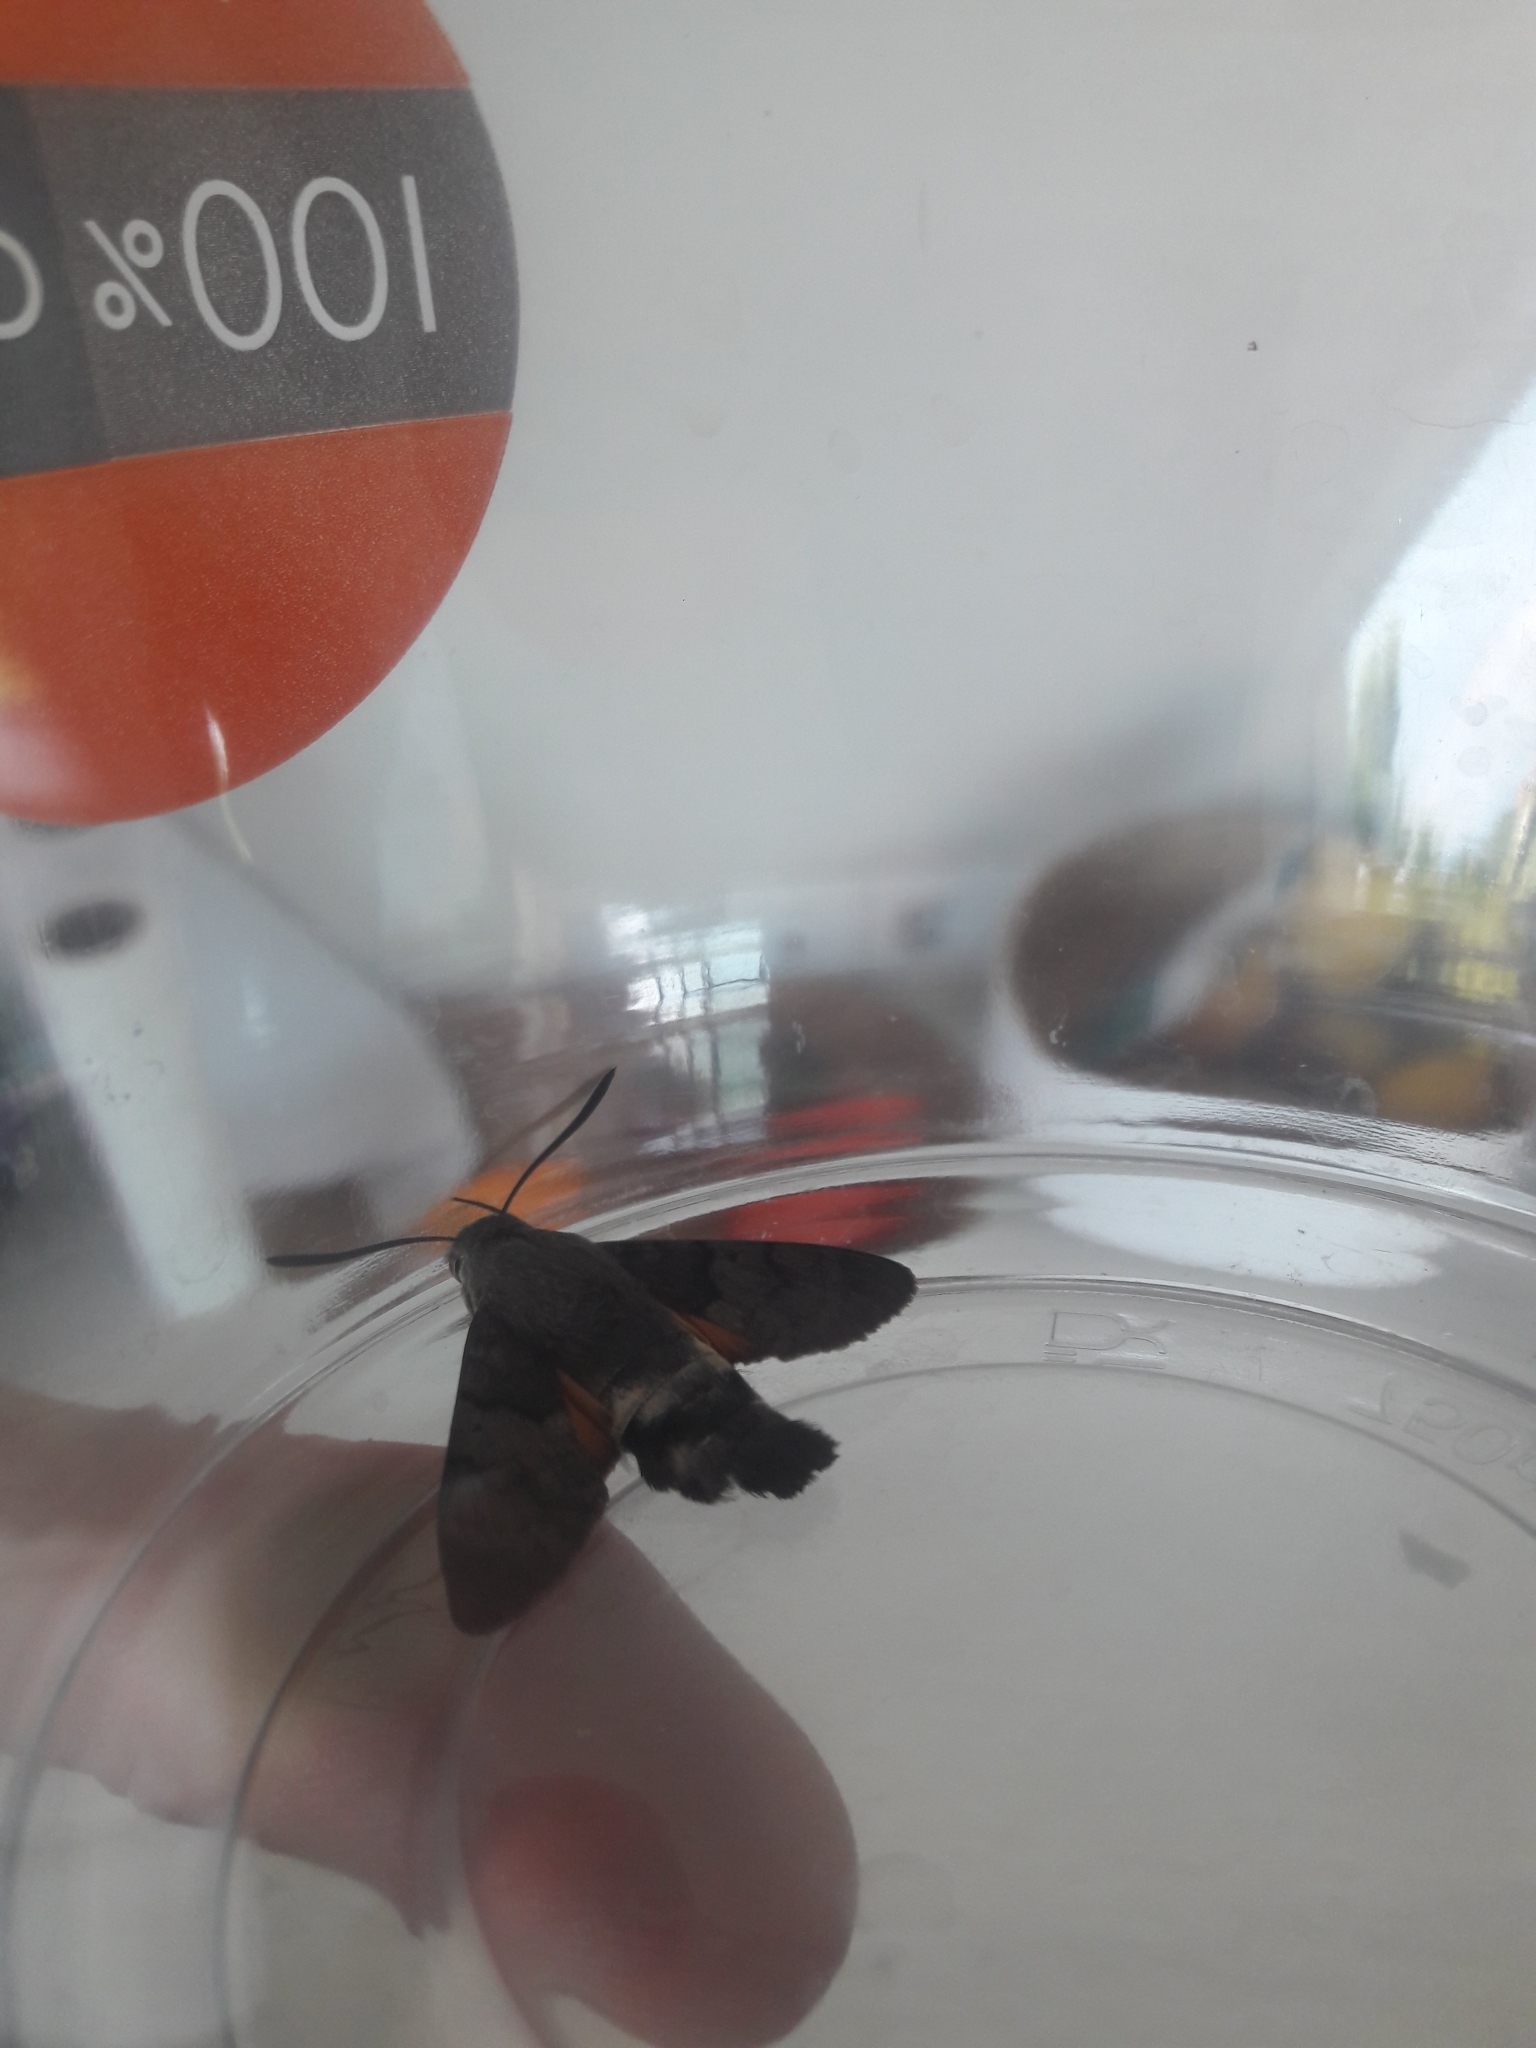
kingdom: Animalia
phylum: Arthropoda
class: Insecta
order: Lepidoptera
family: Sphingidae
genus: Macroglossum
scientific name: Macroglossum stellatarum
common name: Humming-bird hawk-moth
